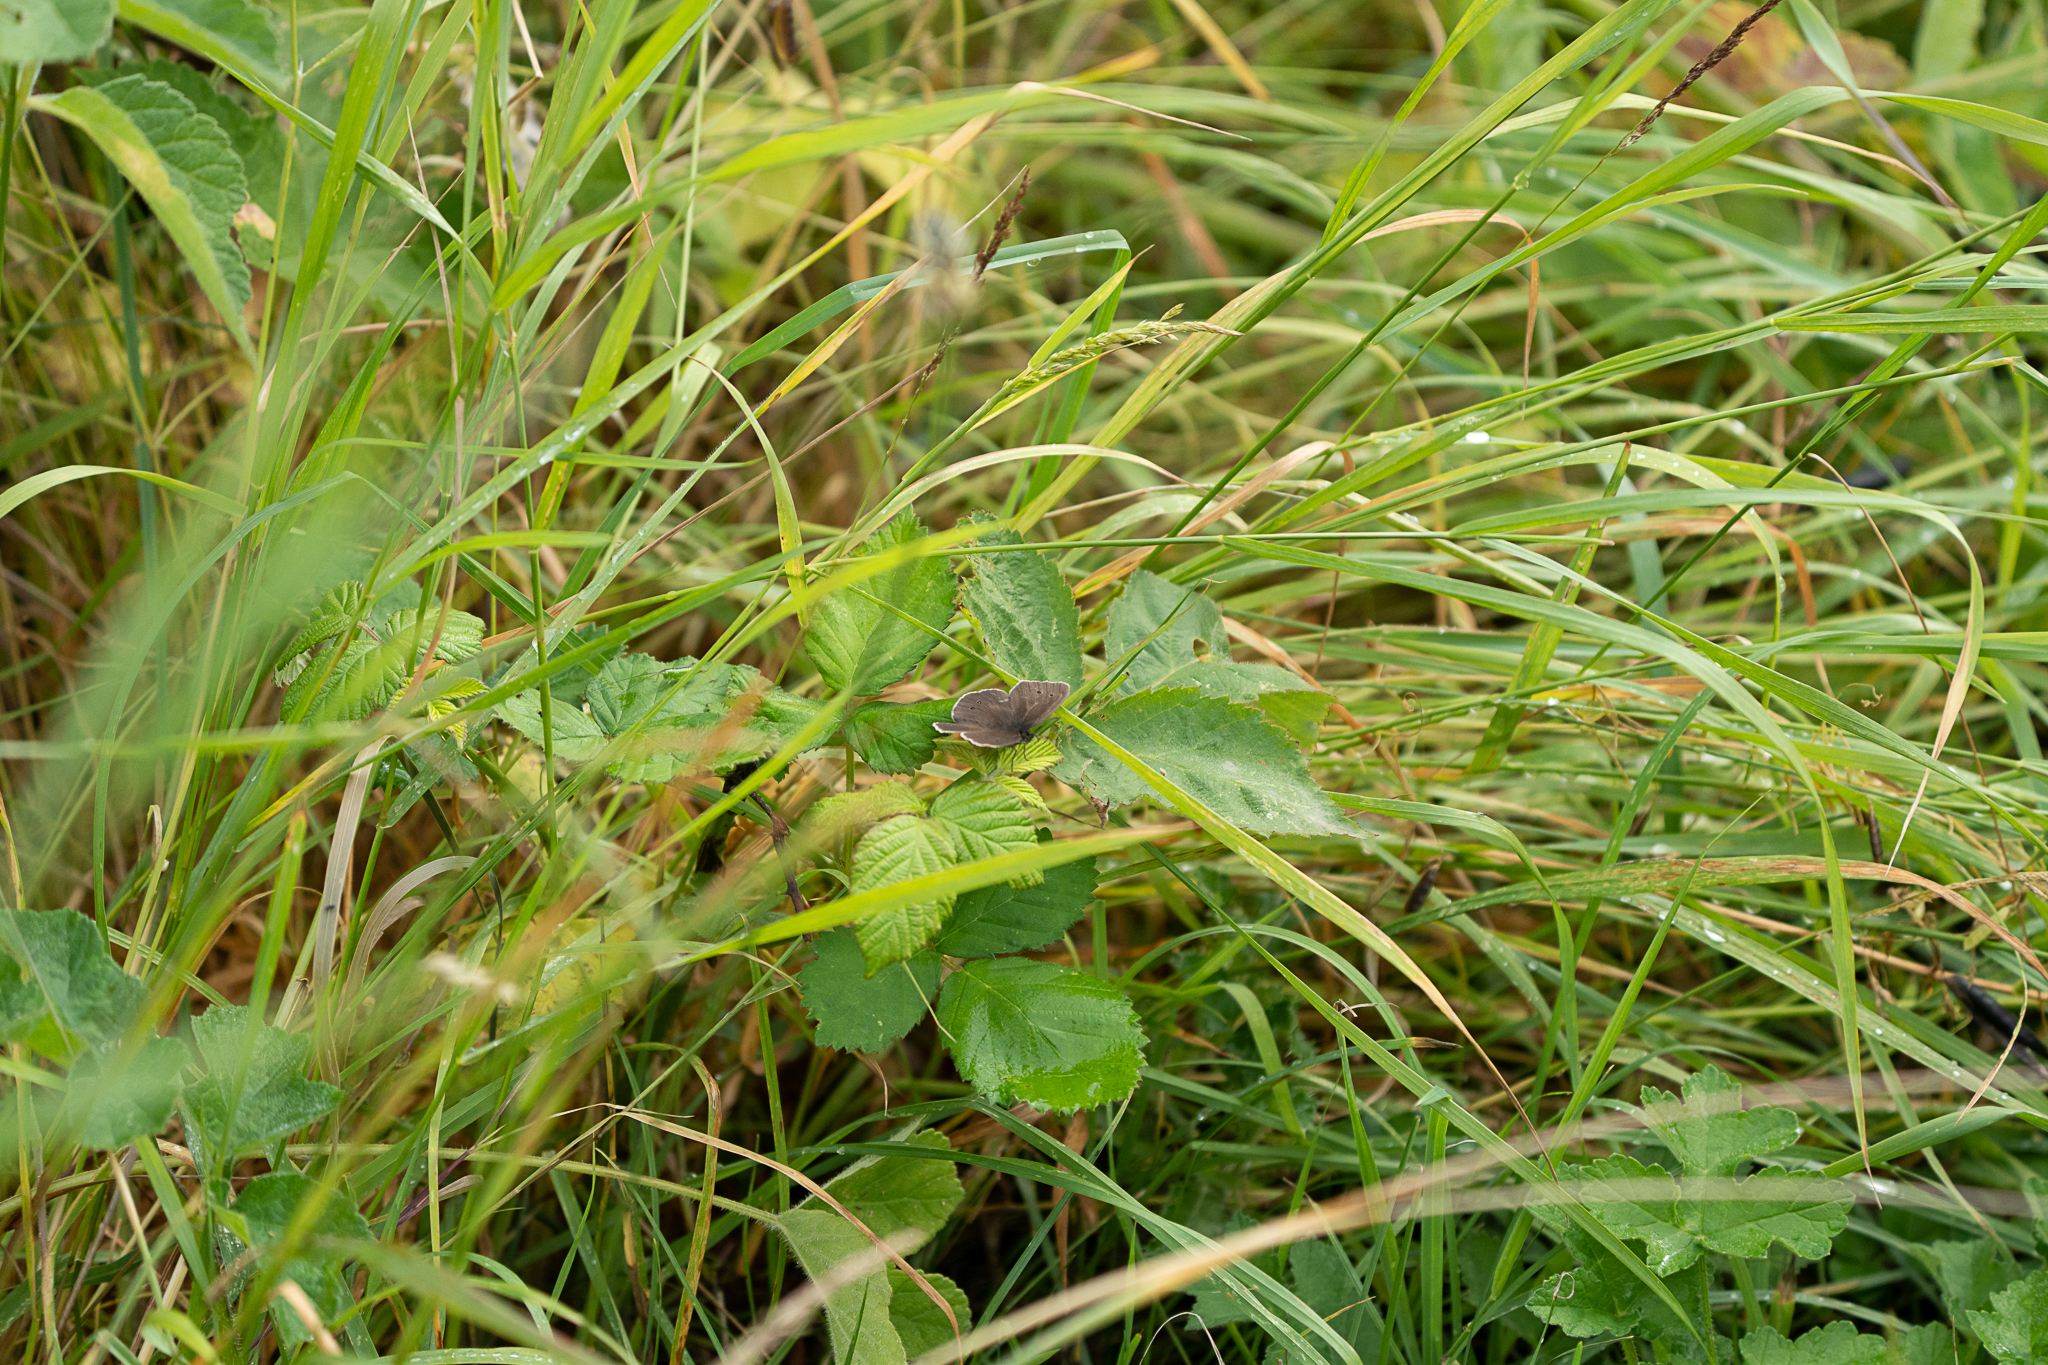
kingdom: Animalia
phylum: Arthropoda
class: Insecta
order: Lepidoptera
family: Nymphalidae
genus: Aphantopus
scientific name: Aphantopus hyperantus
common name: Ringlet
